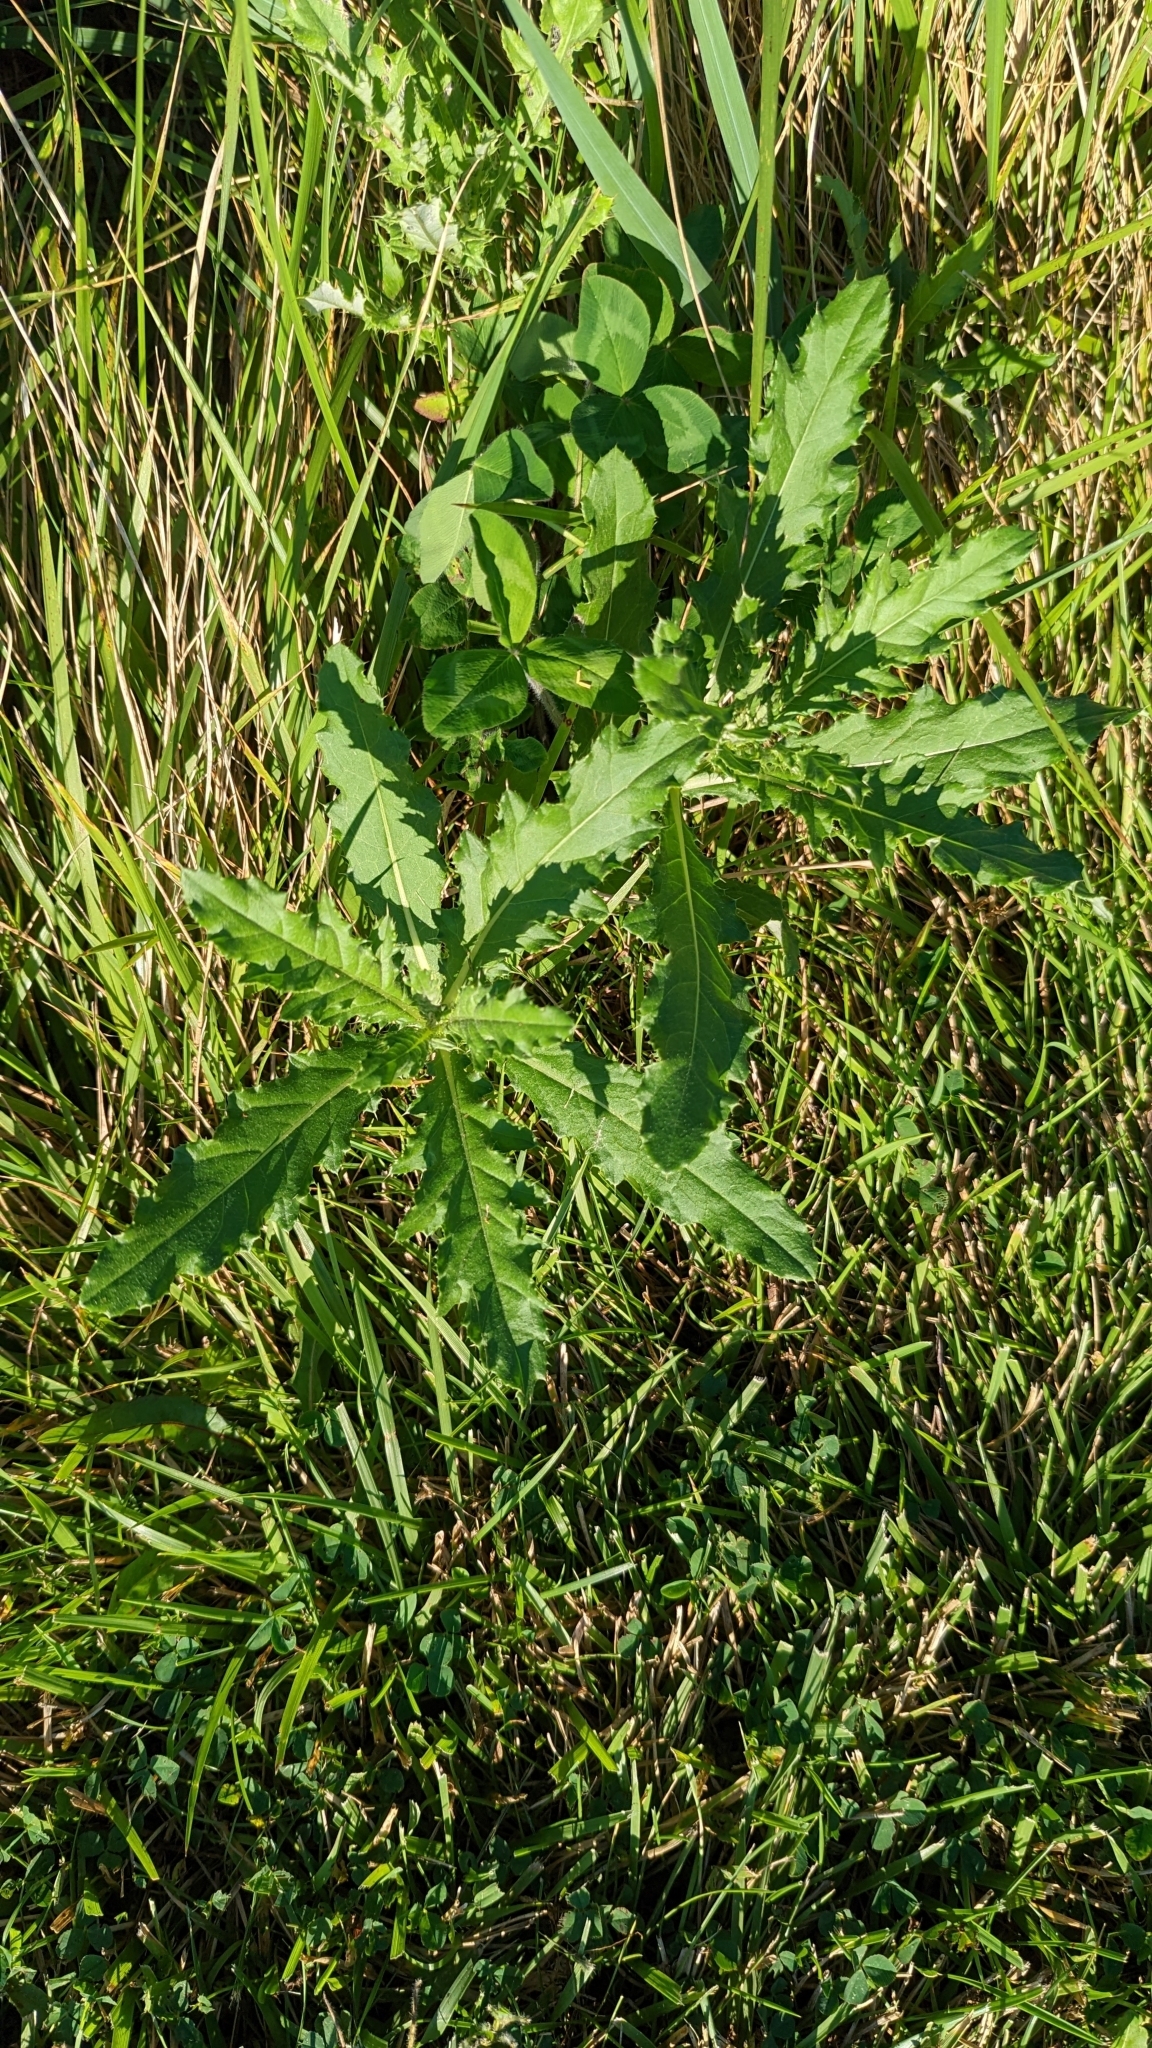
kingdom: Plantae
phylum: Tracheophyta
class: Magnoliopsida
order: Asterales
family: Asteraceae
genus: Cirsium
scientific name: Cirsium arvense
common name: Creeping thistle
